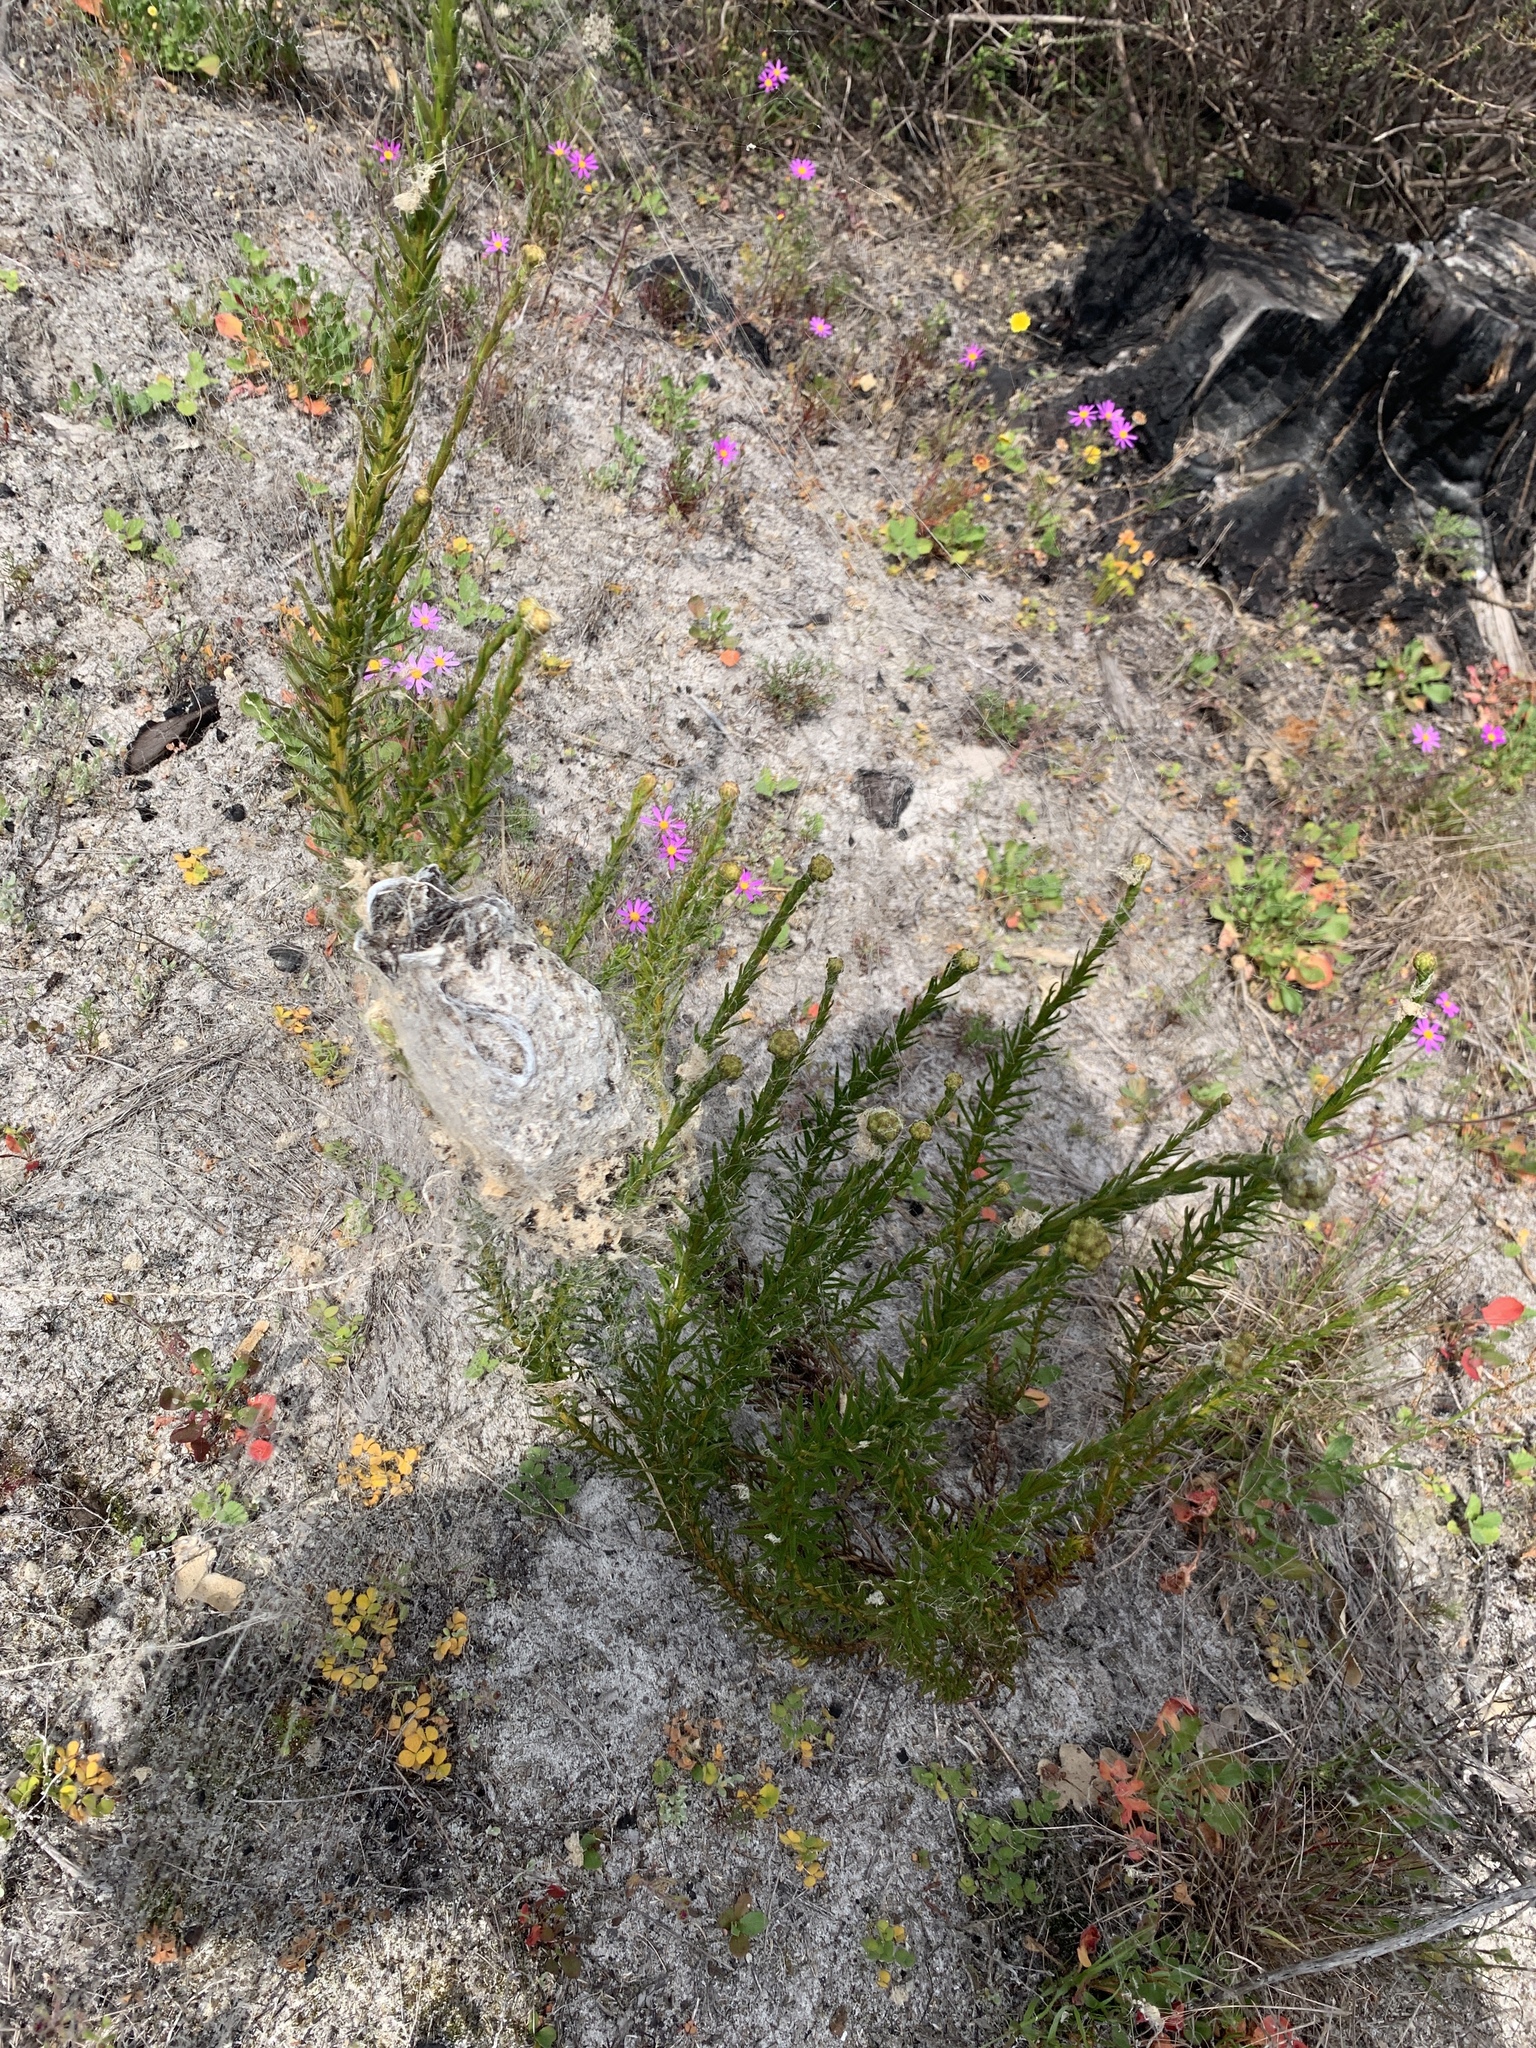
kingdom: Plantae
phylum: Tracheophyta
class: Magnoliopsida
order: Lamiales
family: Scrophulariaceae
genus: Pseudoselago
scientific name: Pseudoselago spuria
